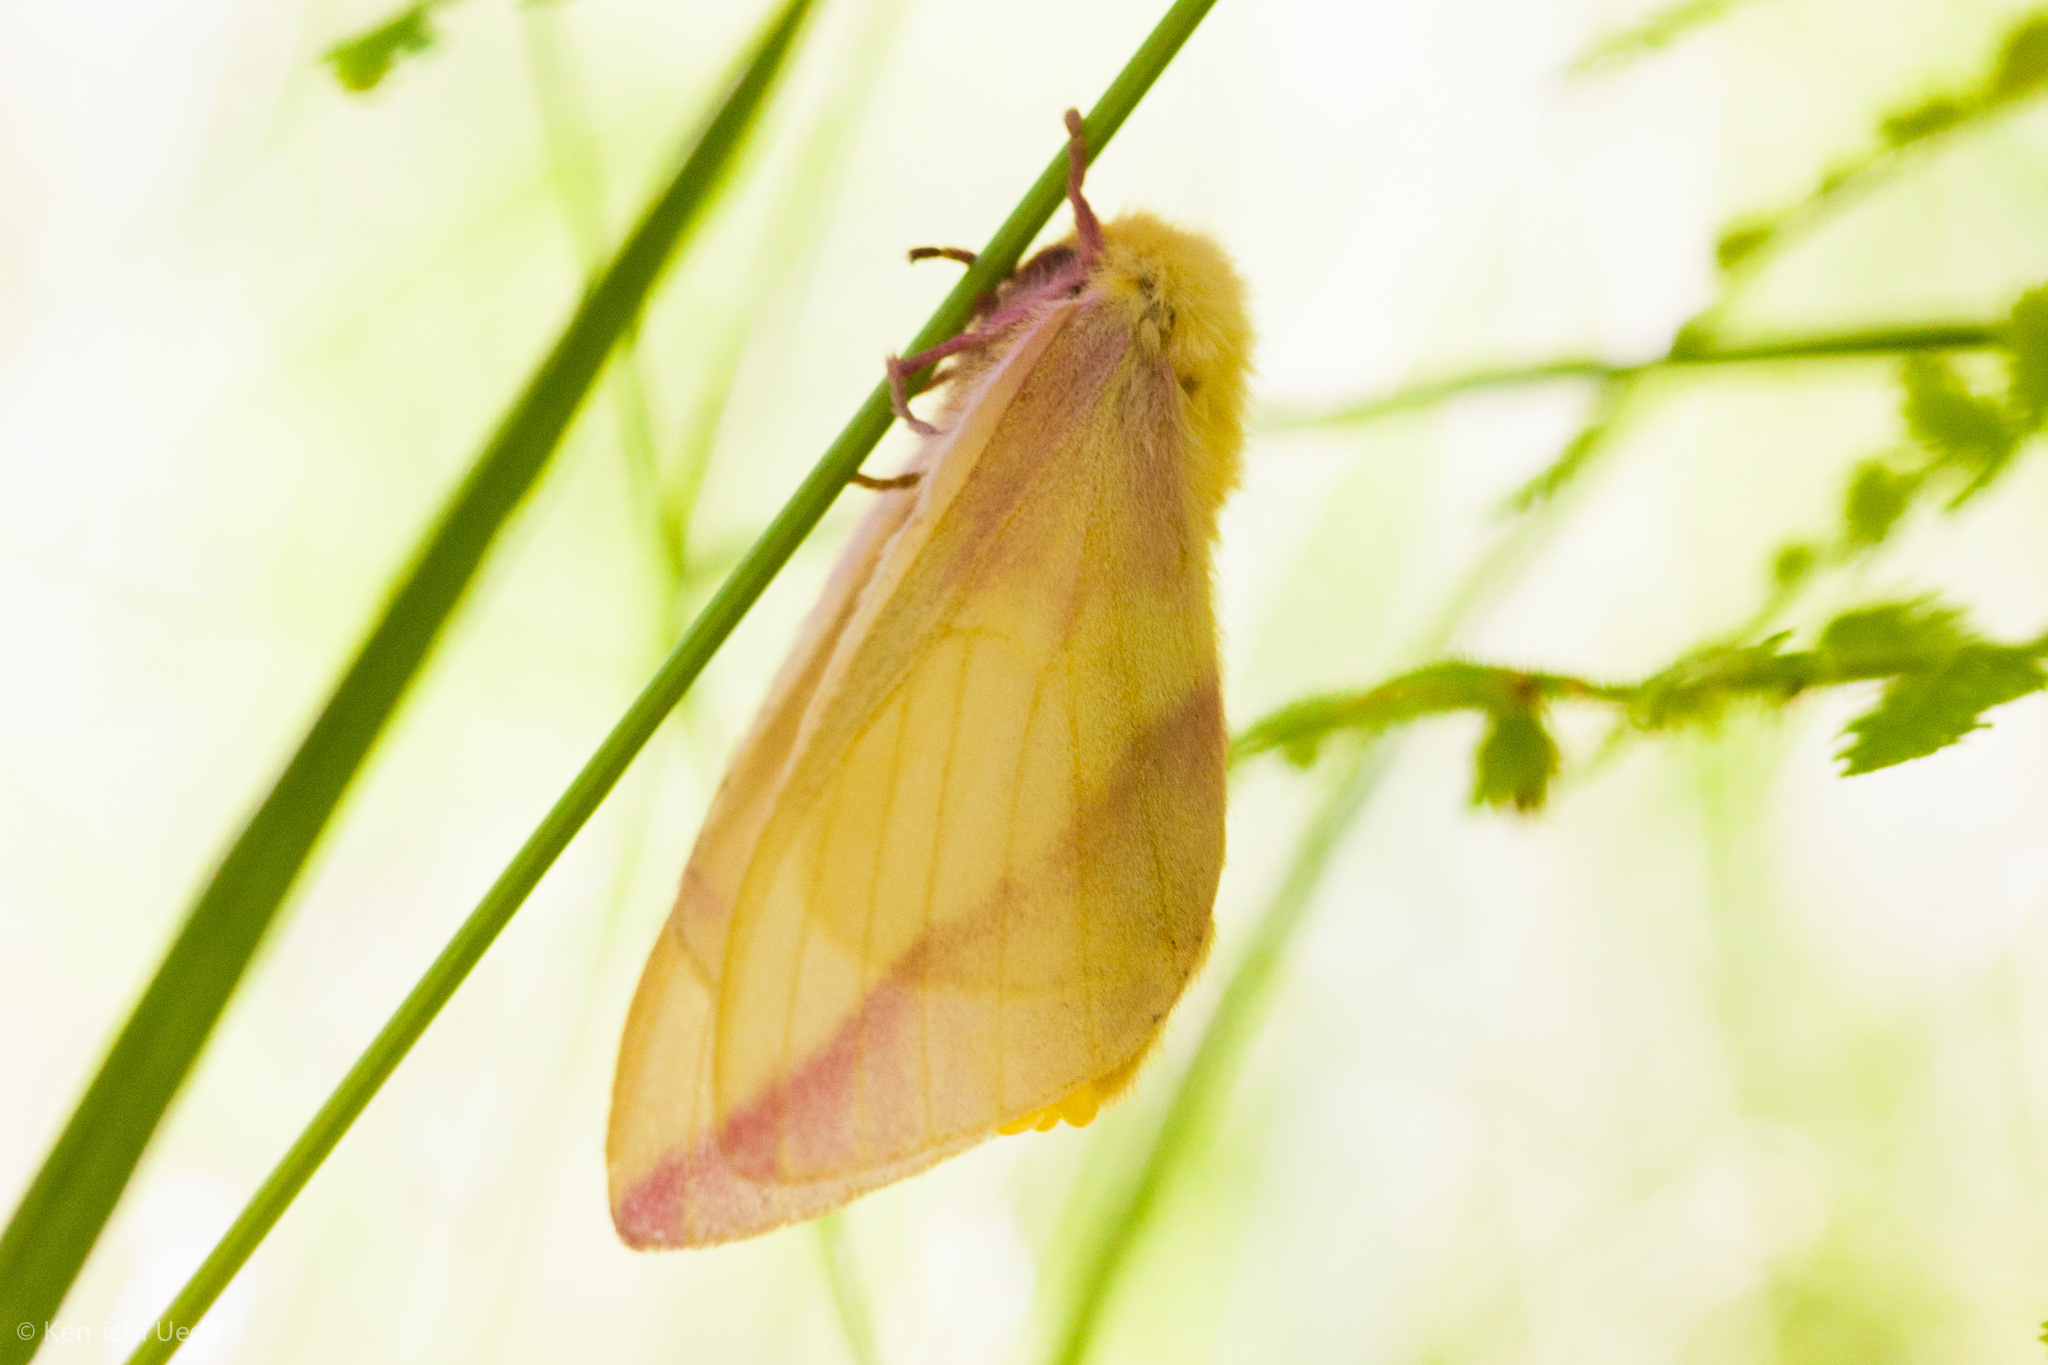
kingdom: Animalia
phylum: Arthropoda
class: Insecta
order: Lepidoptera
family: Saturniidae
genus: Dryocampa
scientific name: Dryocampa rubicunda
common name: Rosy maple moth
